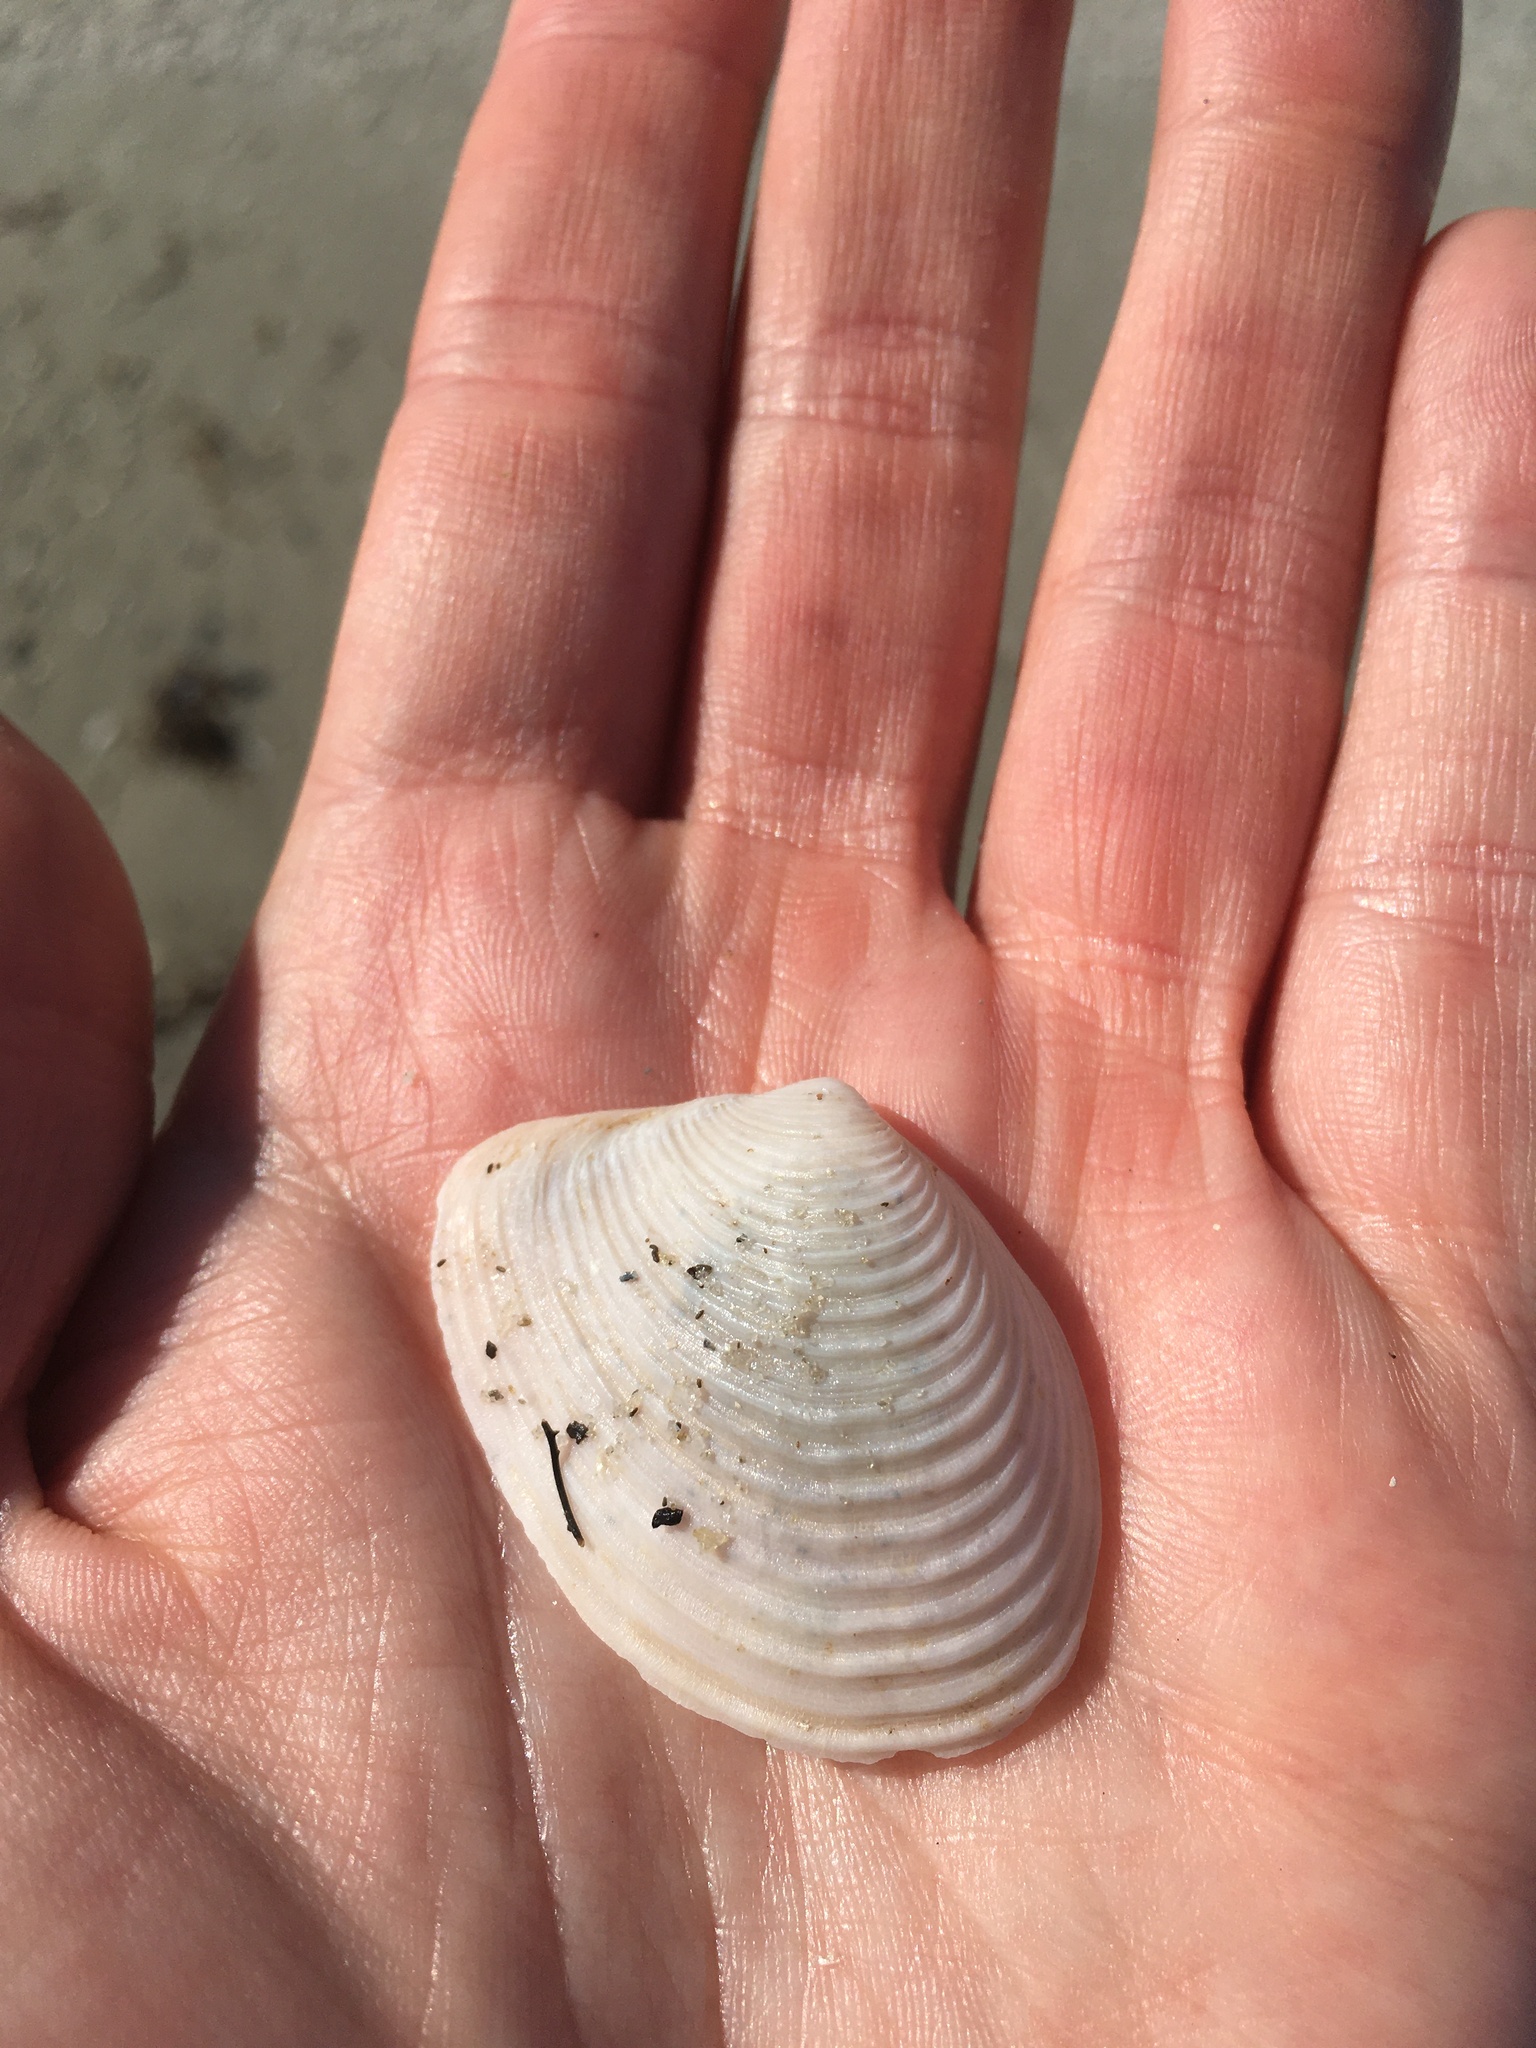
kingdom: Animalia
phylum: Mollusca
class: Bivalvia
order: Venerida
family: Anatinellidae
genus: Raeta
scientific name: Raeta plicatella
